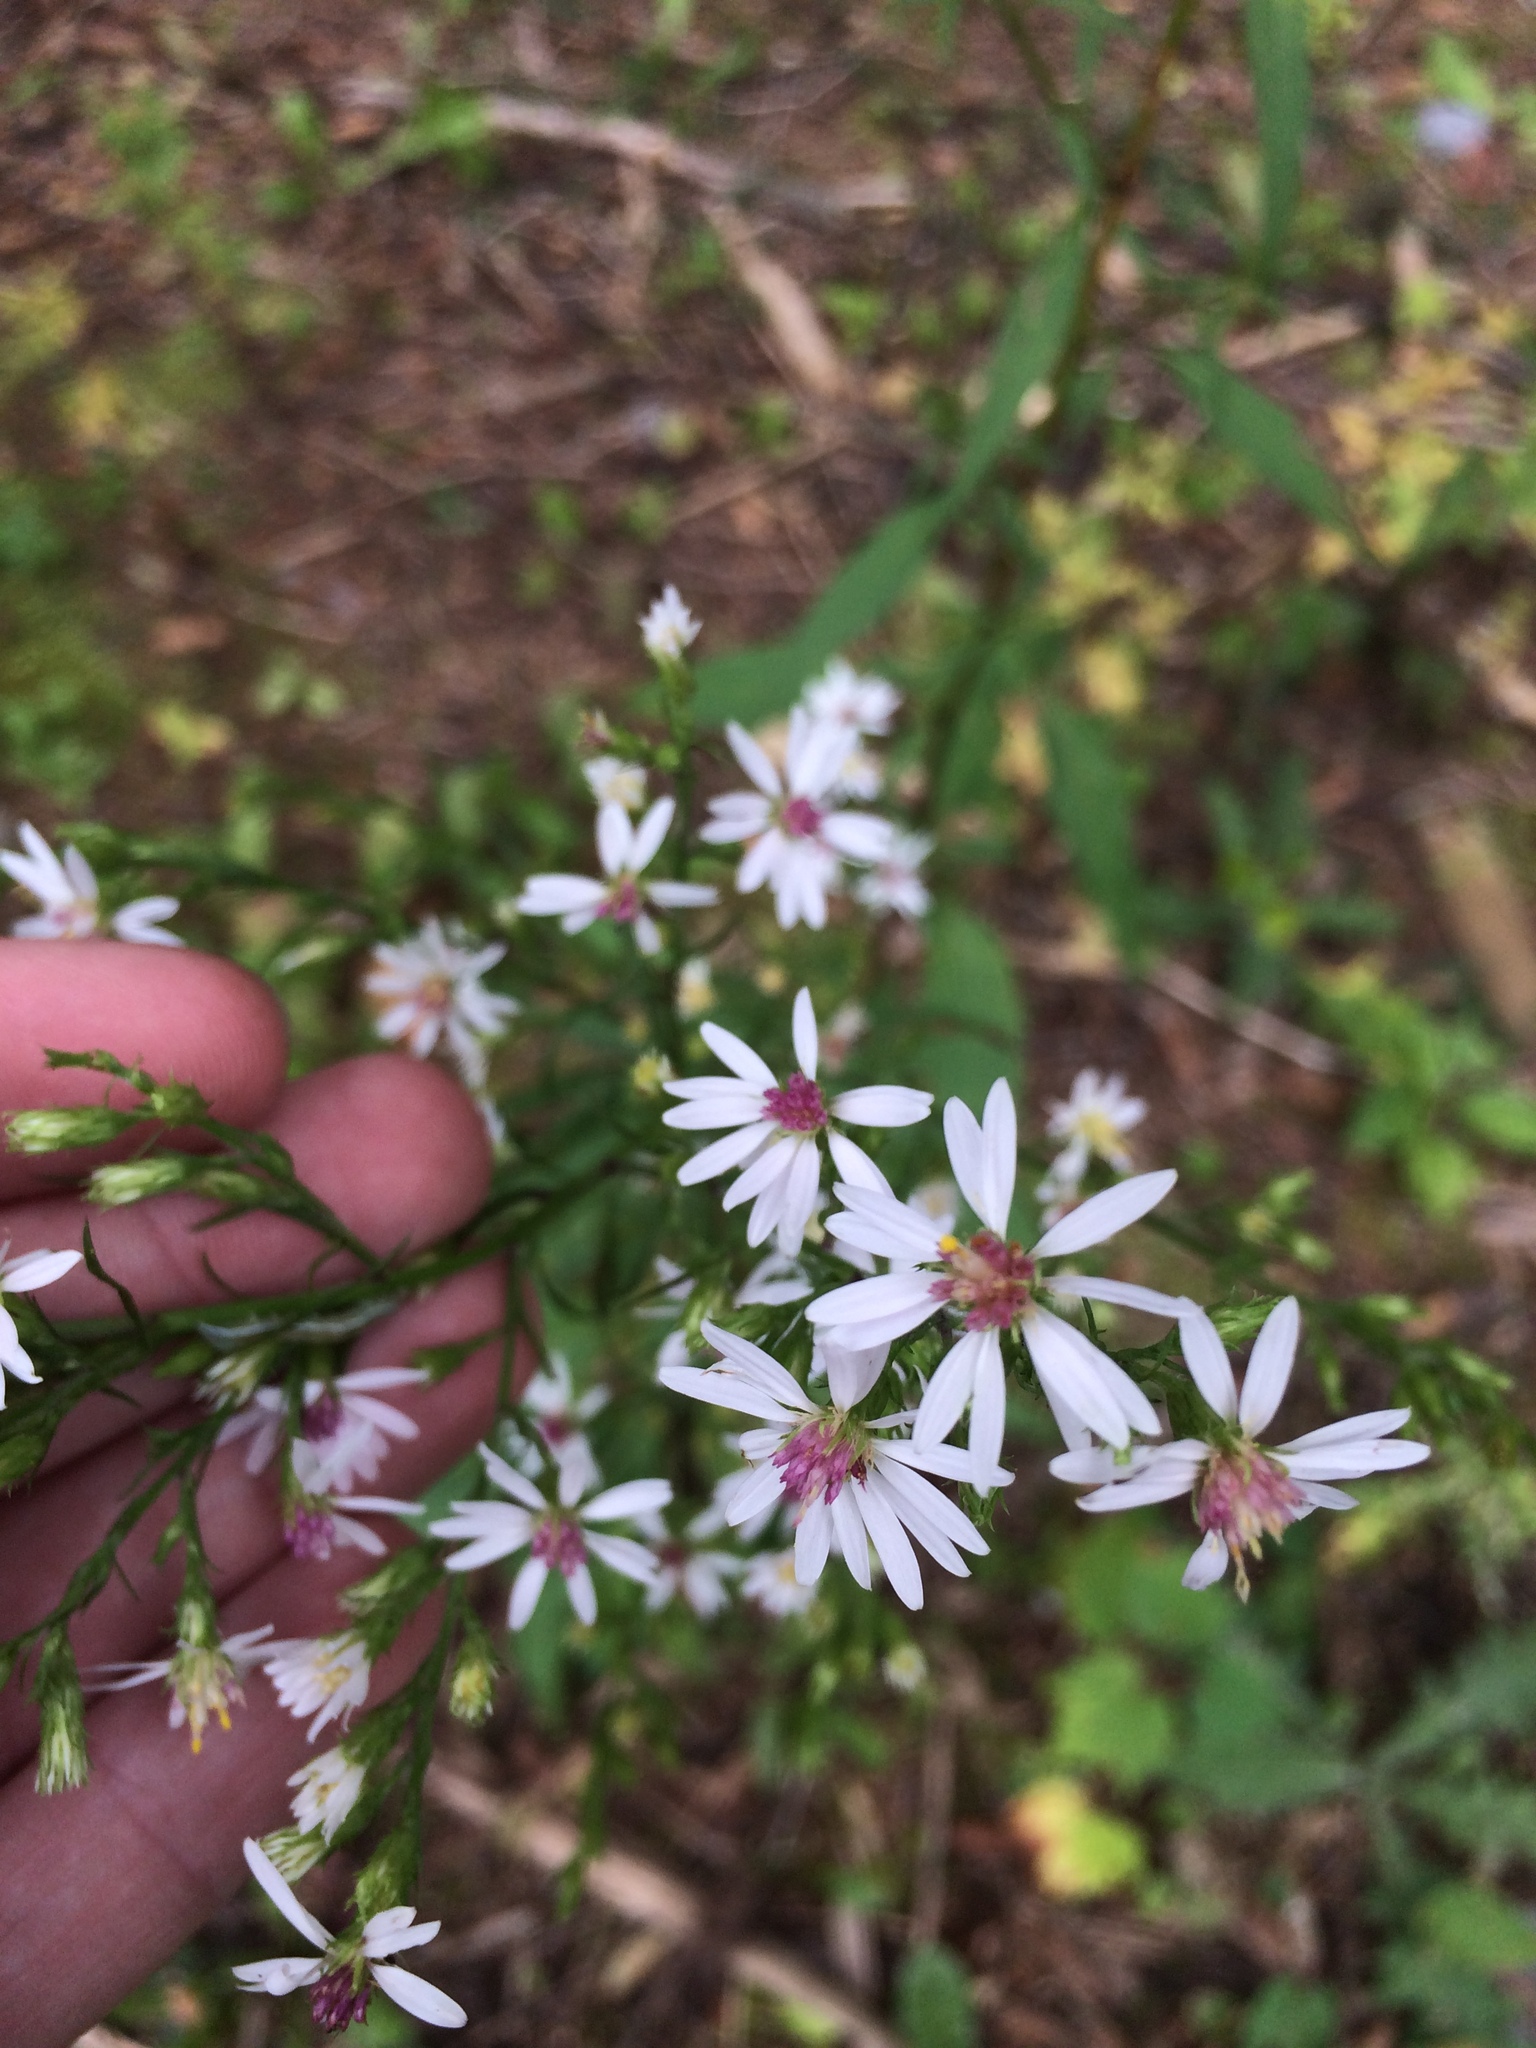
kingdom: Plantae
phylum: Tracheophyta
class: Magnoliopsida
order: Asterales
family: Asteraceae
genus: Symphyotrichum
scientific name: Symphyotrichum urophyllum
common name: Arrow-leaved aster
